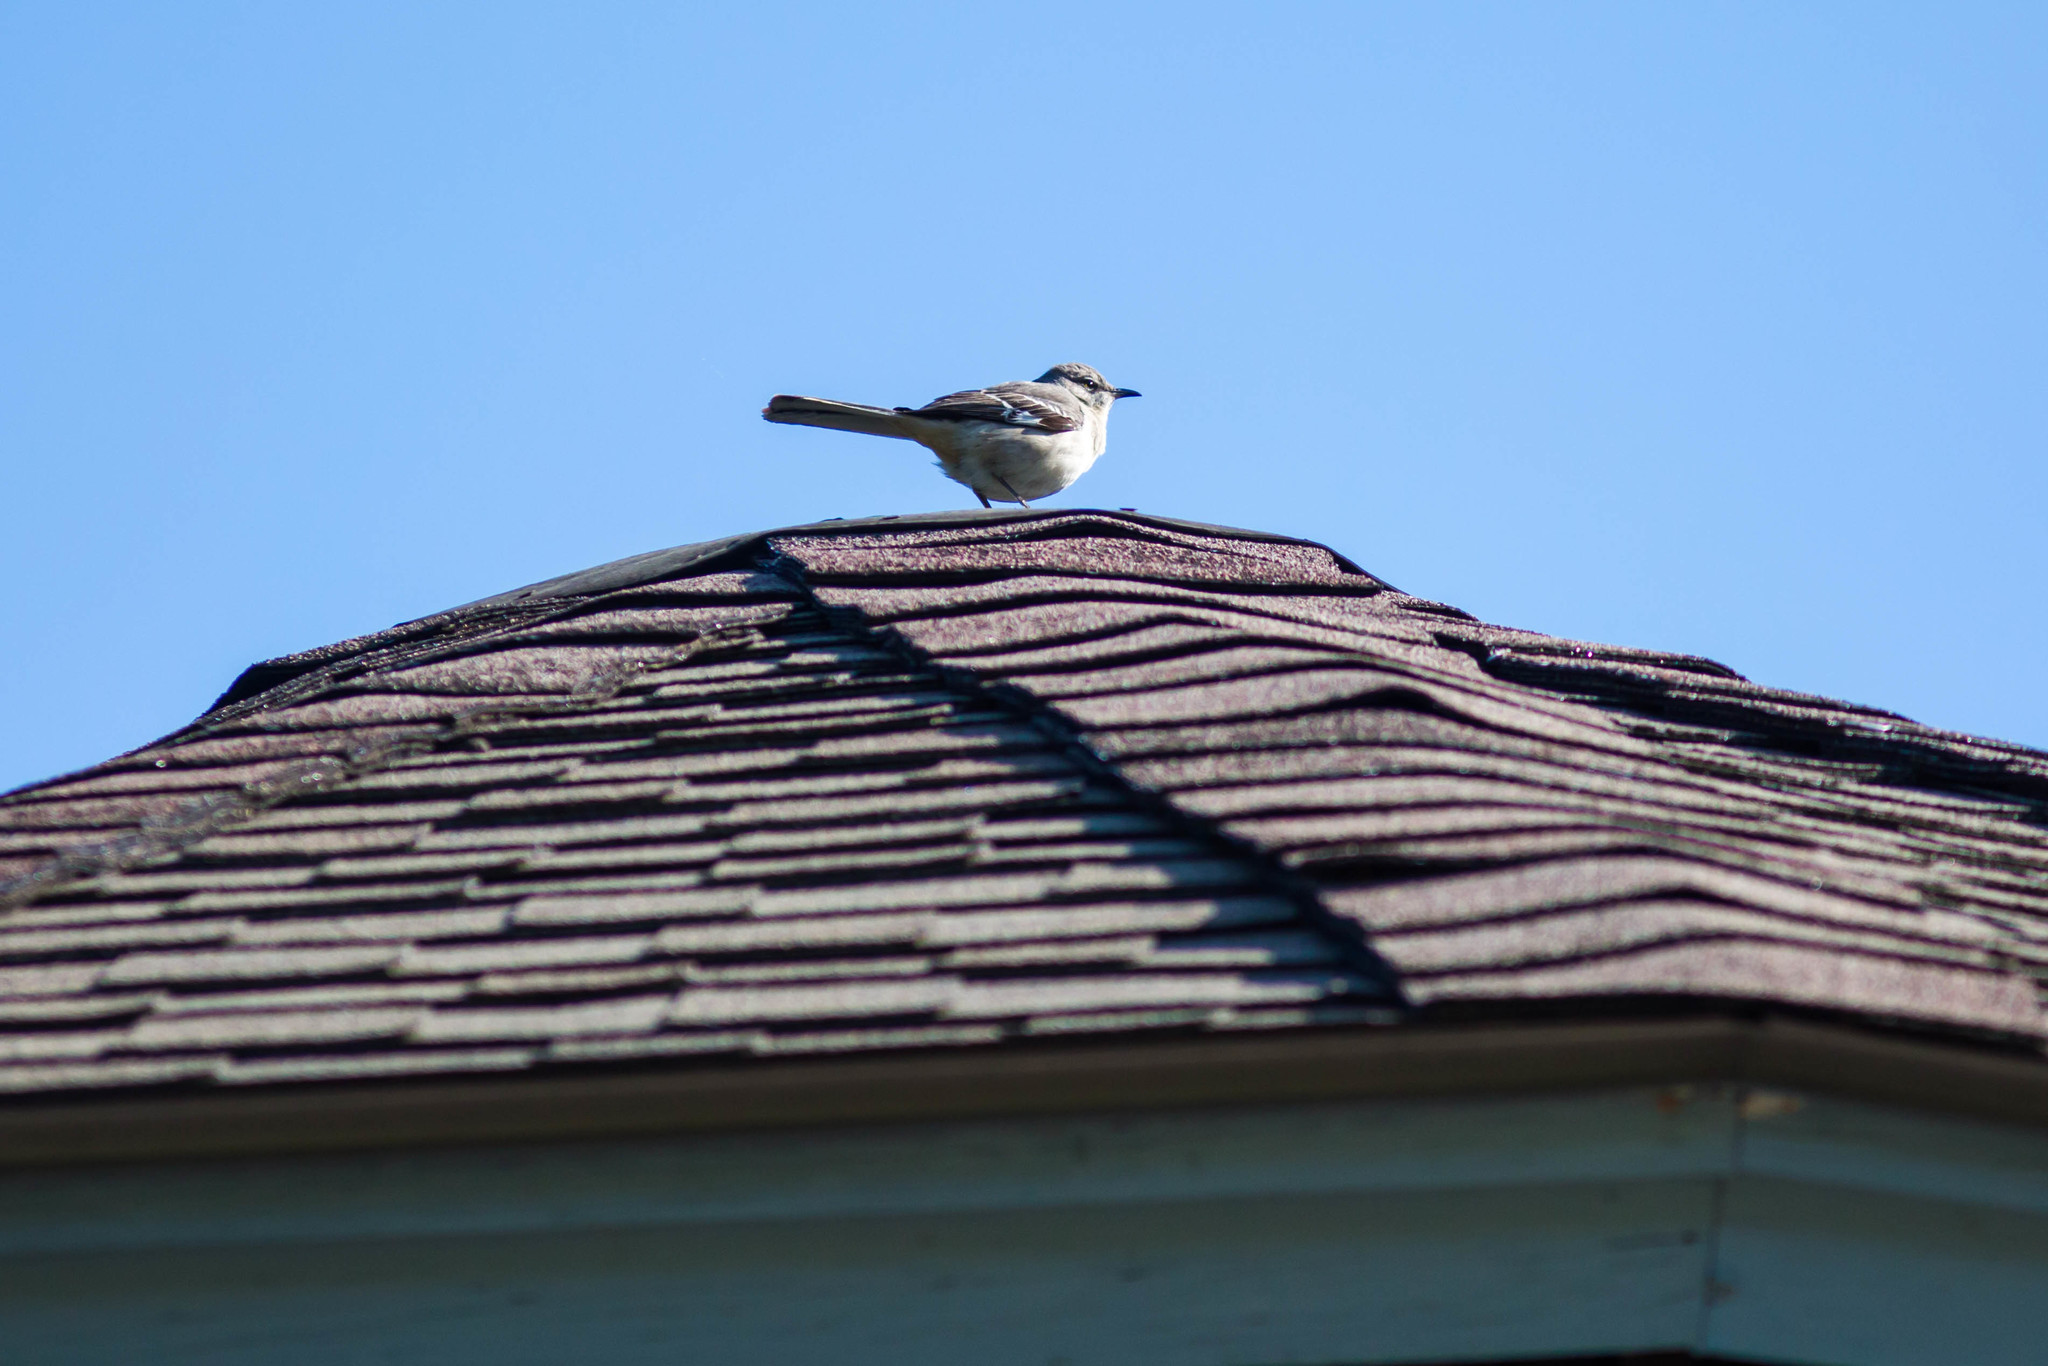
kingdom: Animalia
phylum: Chordata
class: Aves
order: Passeriformes
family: Mimidae
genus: Mimus
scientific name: Mimus polyglottos
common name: Northern mockingbird
